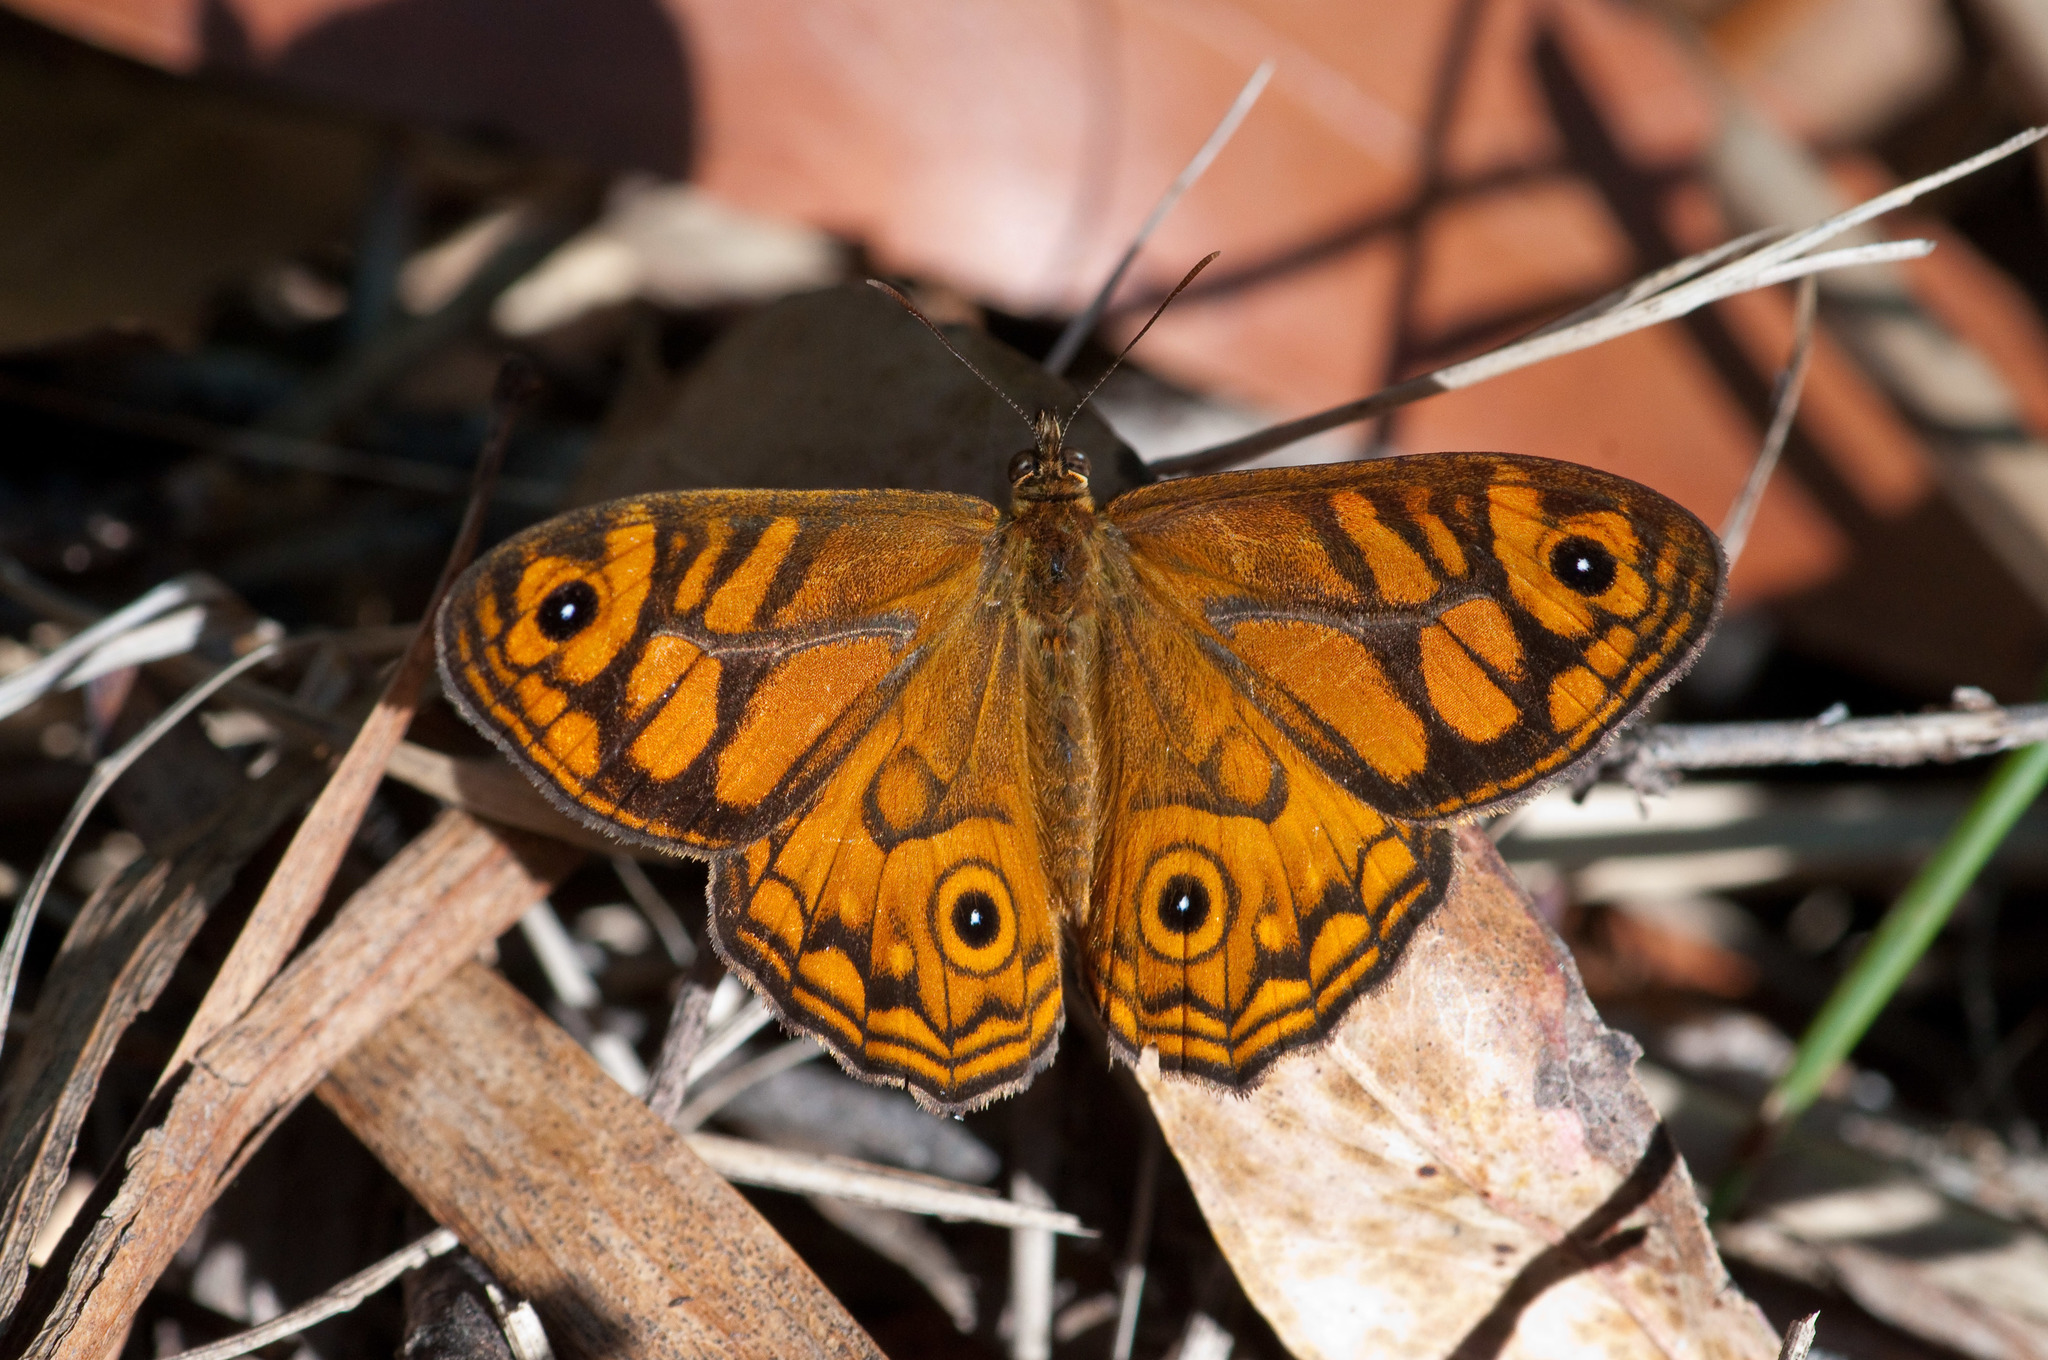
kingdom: Animalia
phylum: Arthropoda
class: Insecta
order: Lepidoptera
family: Nymphalidae
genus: Geitoneura
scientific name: Geitoneura acantha
